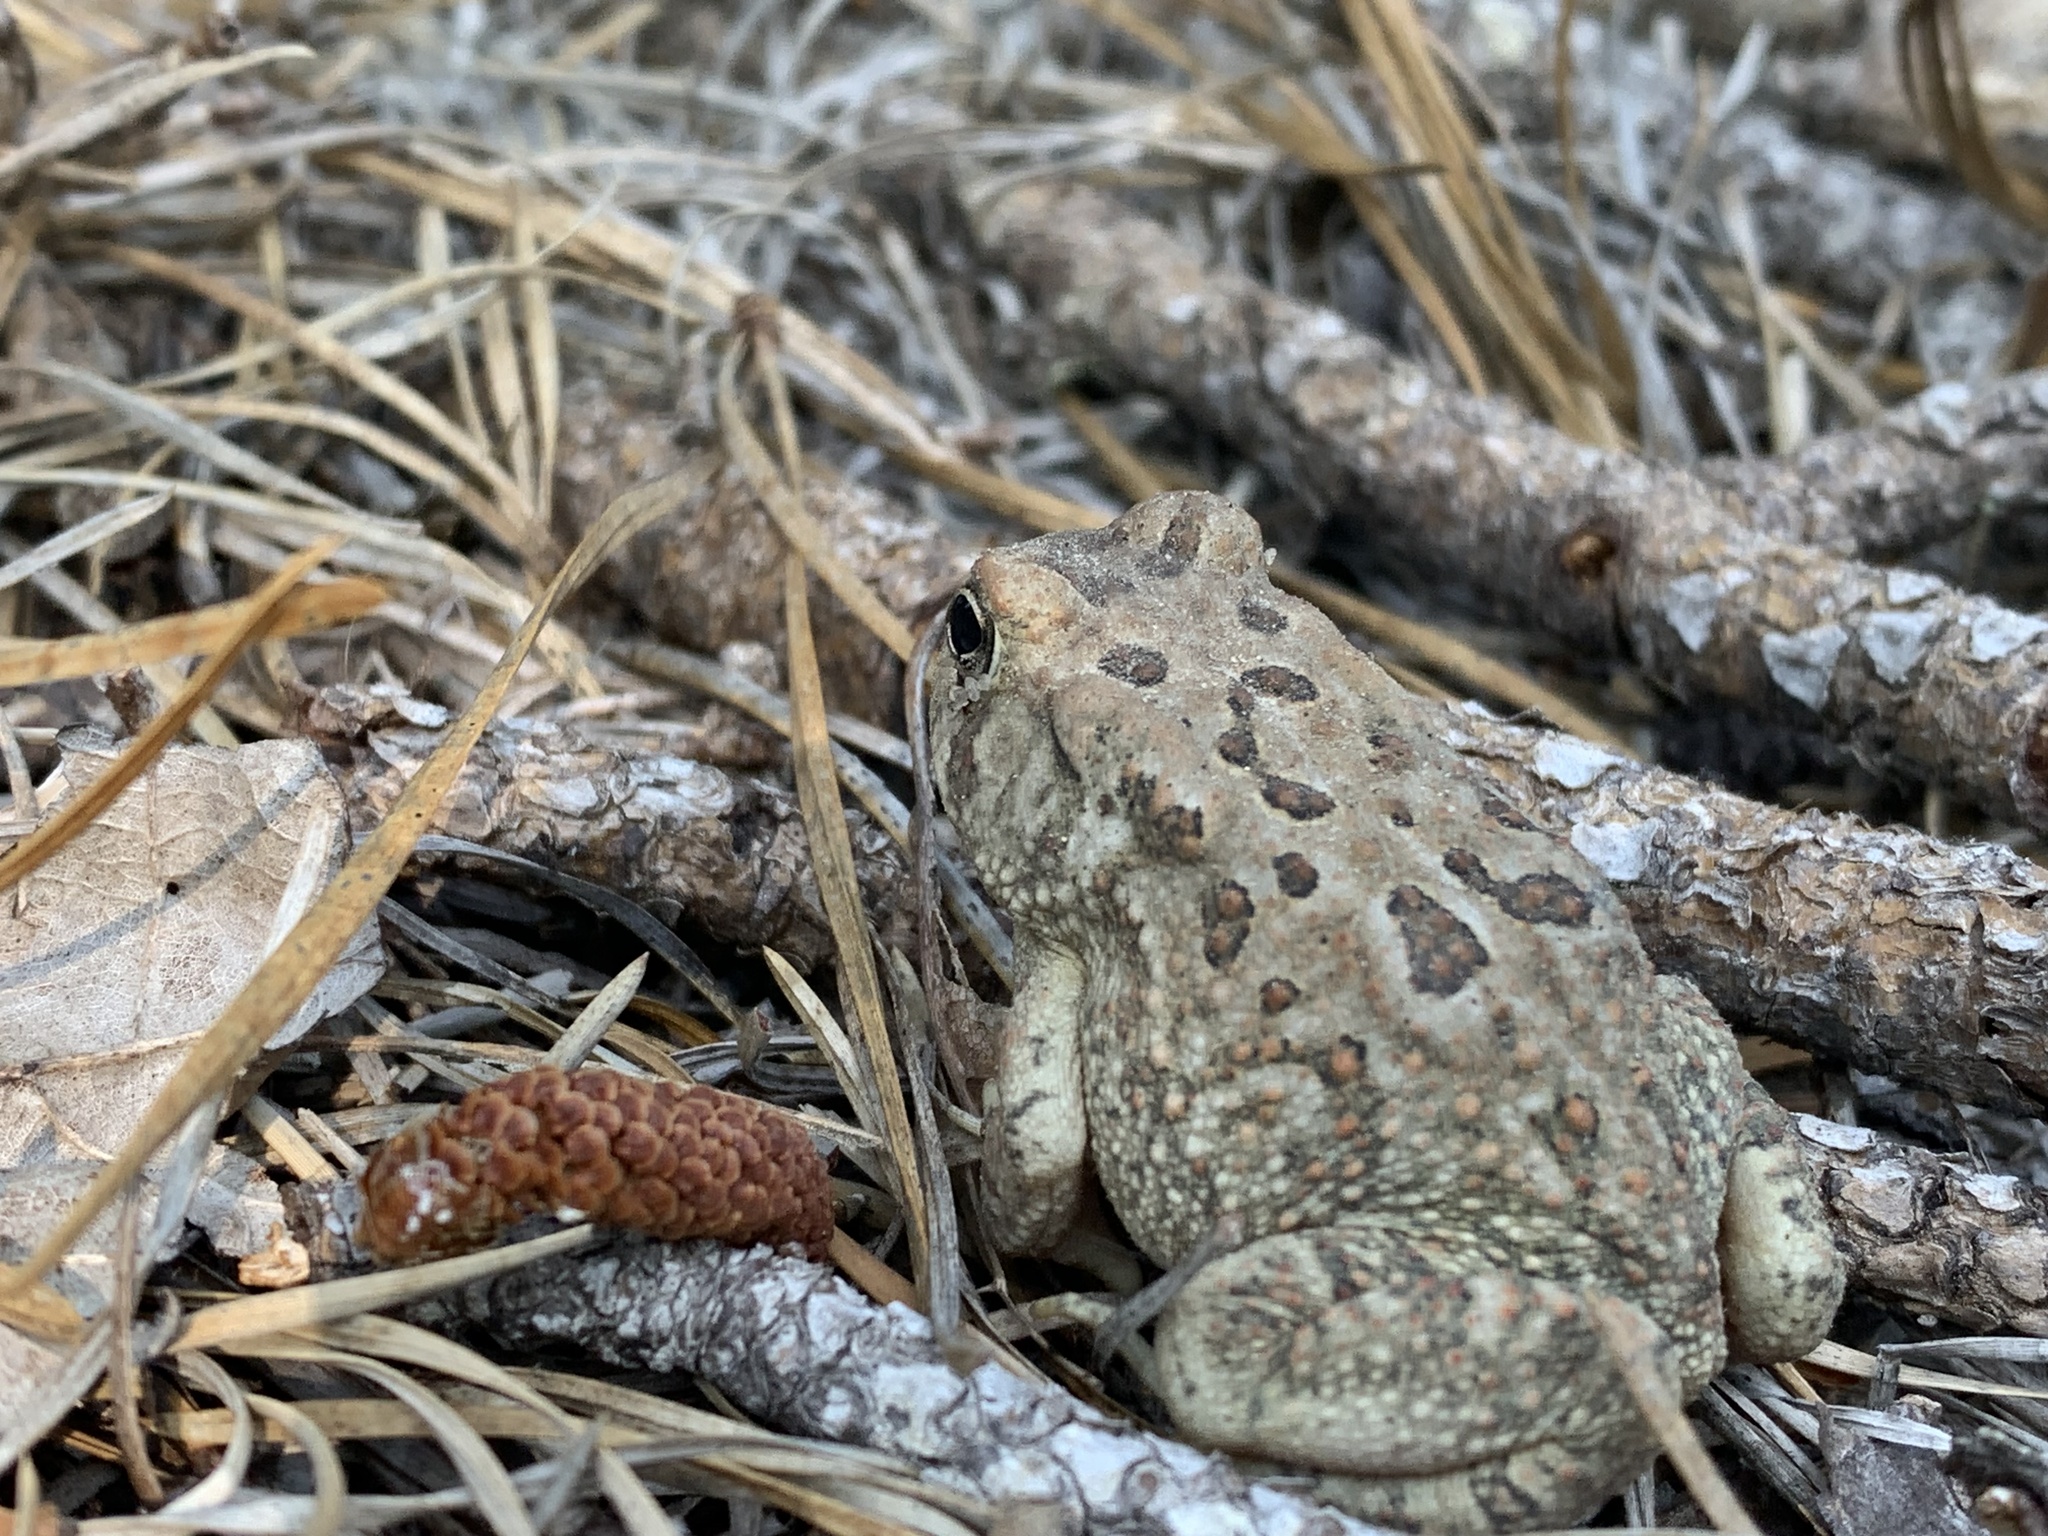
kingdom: Animalia
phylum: Chordata
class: Amphibia
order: Anura
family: Bufonidae
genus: Anaxyrus
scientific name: Anaxyrus fowleri
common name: Fowler's toad
